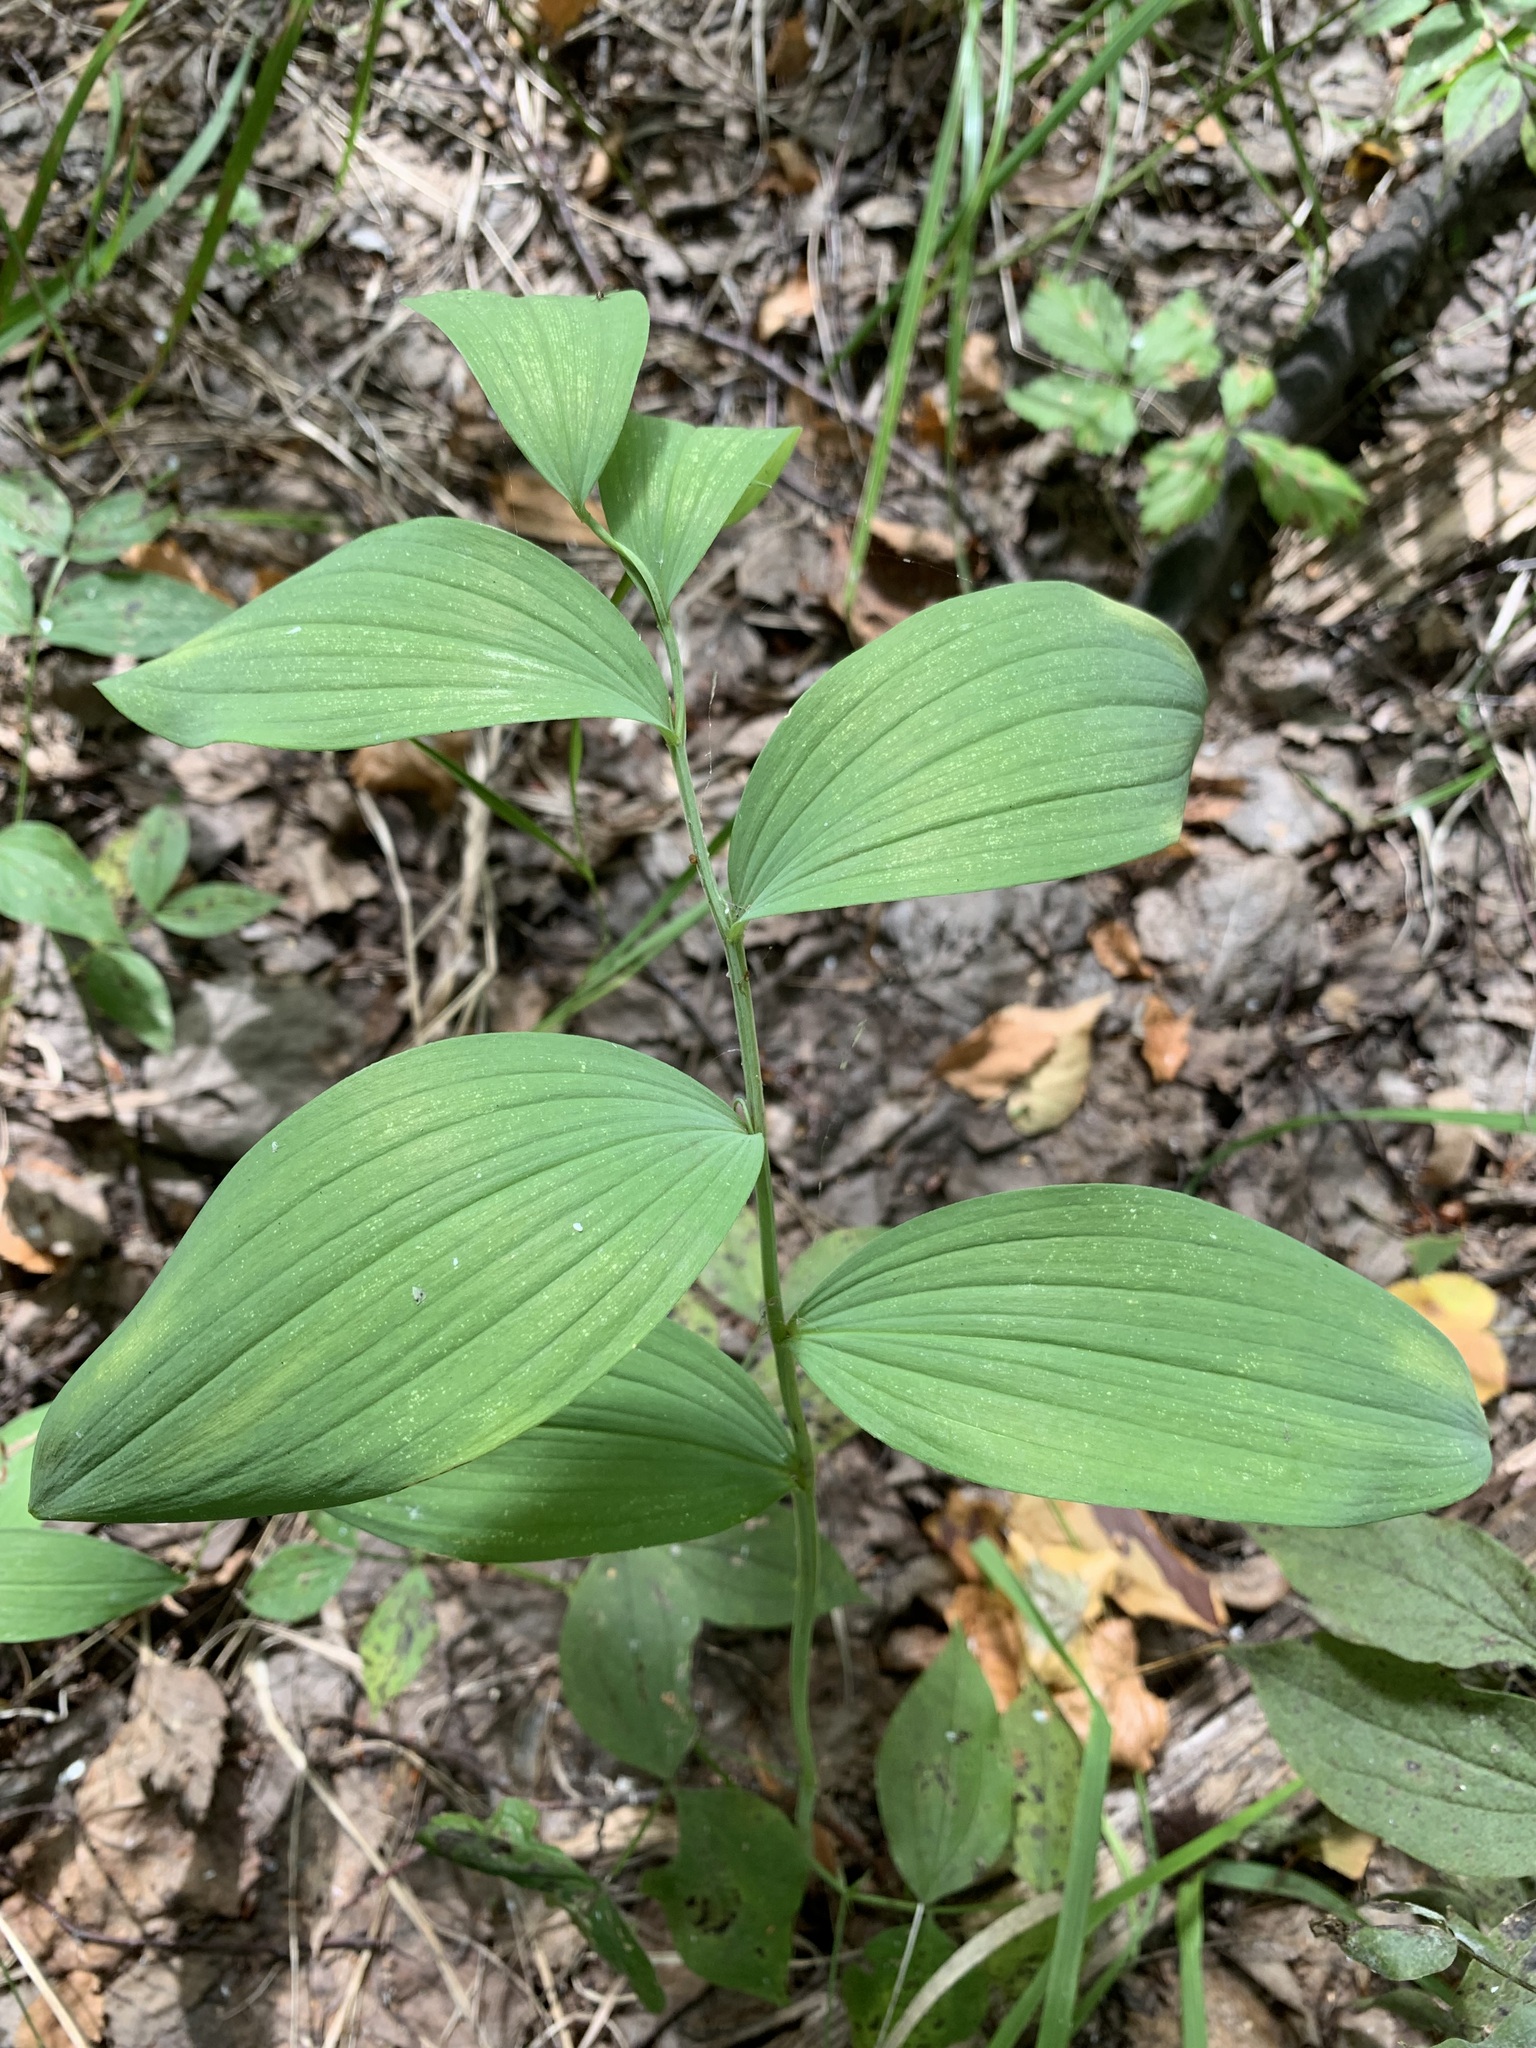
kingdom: Plantae
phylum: Tracheophyta
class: Liliopsida
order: Asparagales
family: Asparagaceae
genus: Polygonatum
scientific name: Polygonatum odoratum
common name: Angular solomon's-seal
